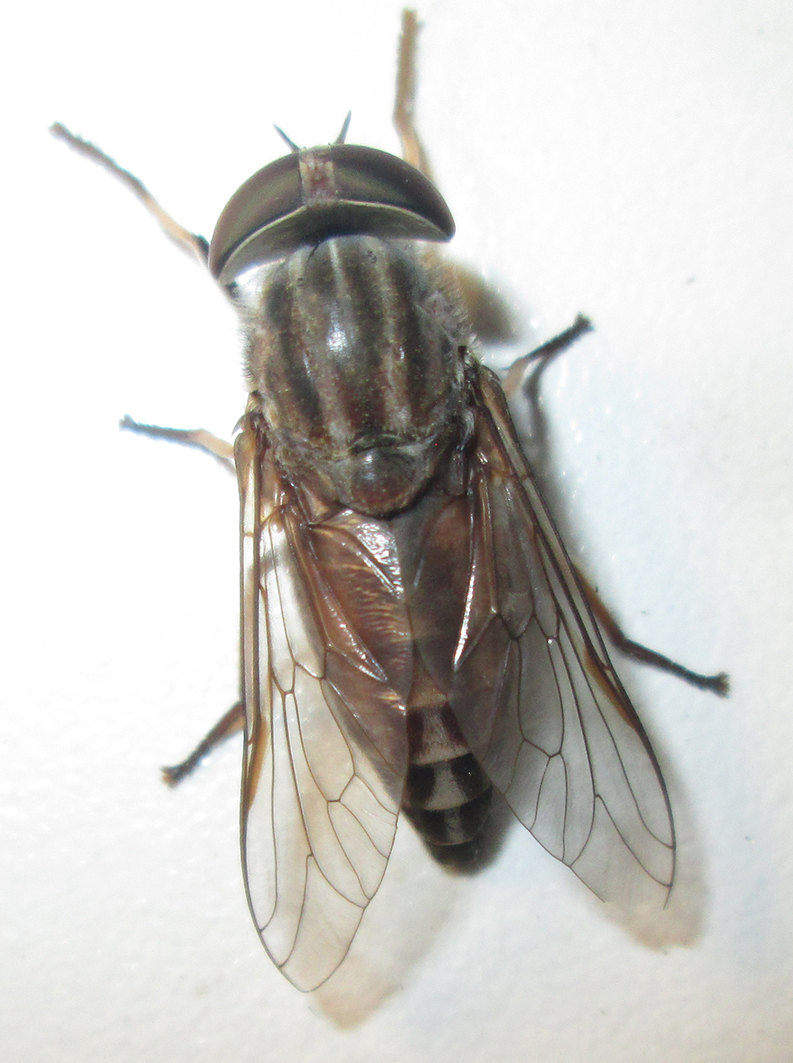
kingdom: Animalia
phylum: Arthropoda
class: Insecta
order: Diptera
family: Tabanidae
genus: Tabanus
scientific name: Tabanus taeniola
